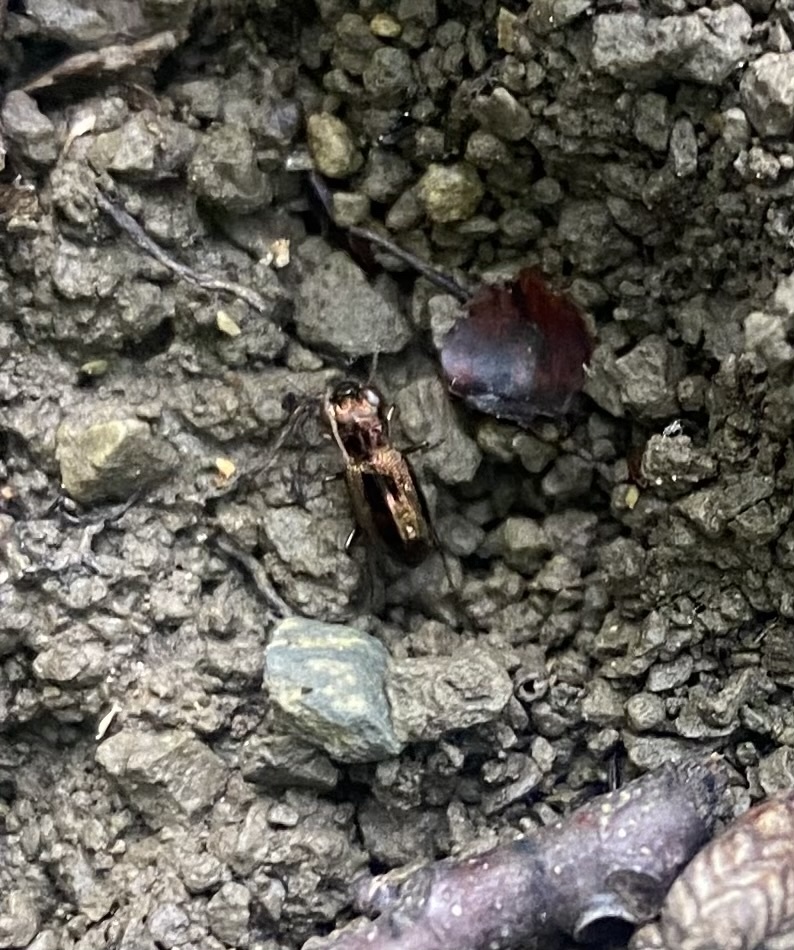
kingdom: Animalia
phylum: Arthropoda
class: Insecta
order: Coleoptera
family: Carabidae
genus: Notiophilus
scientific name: Notiophilus
